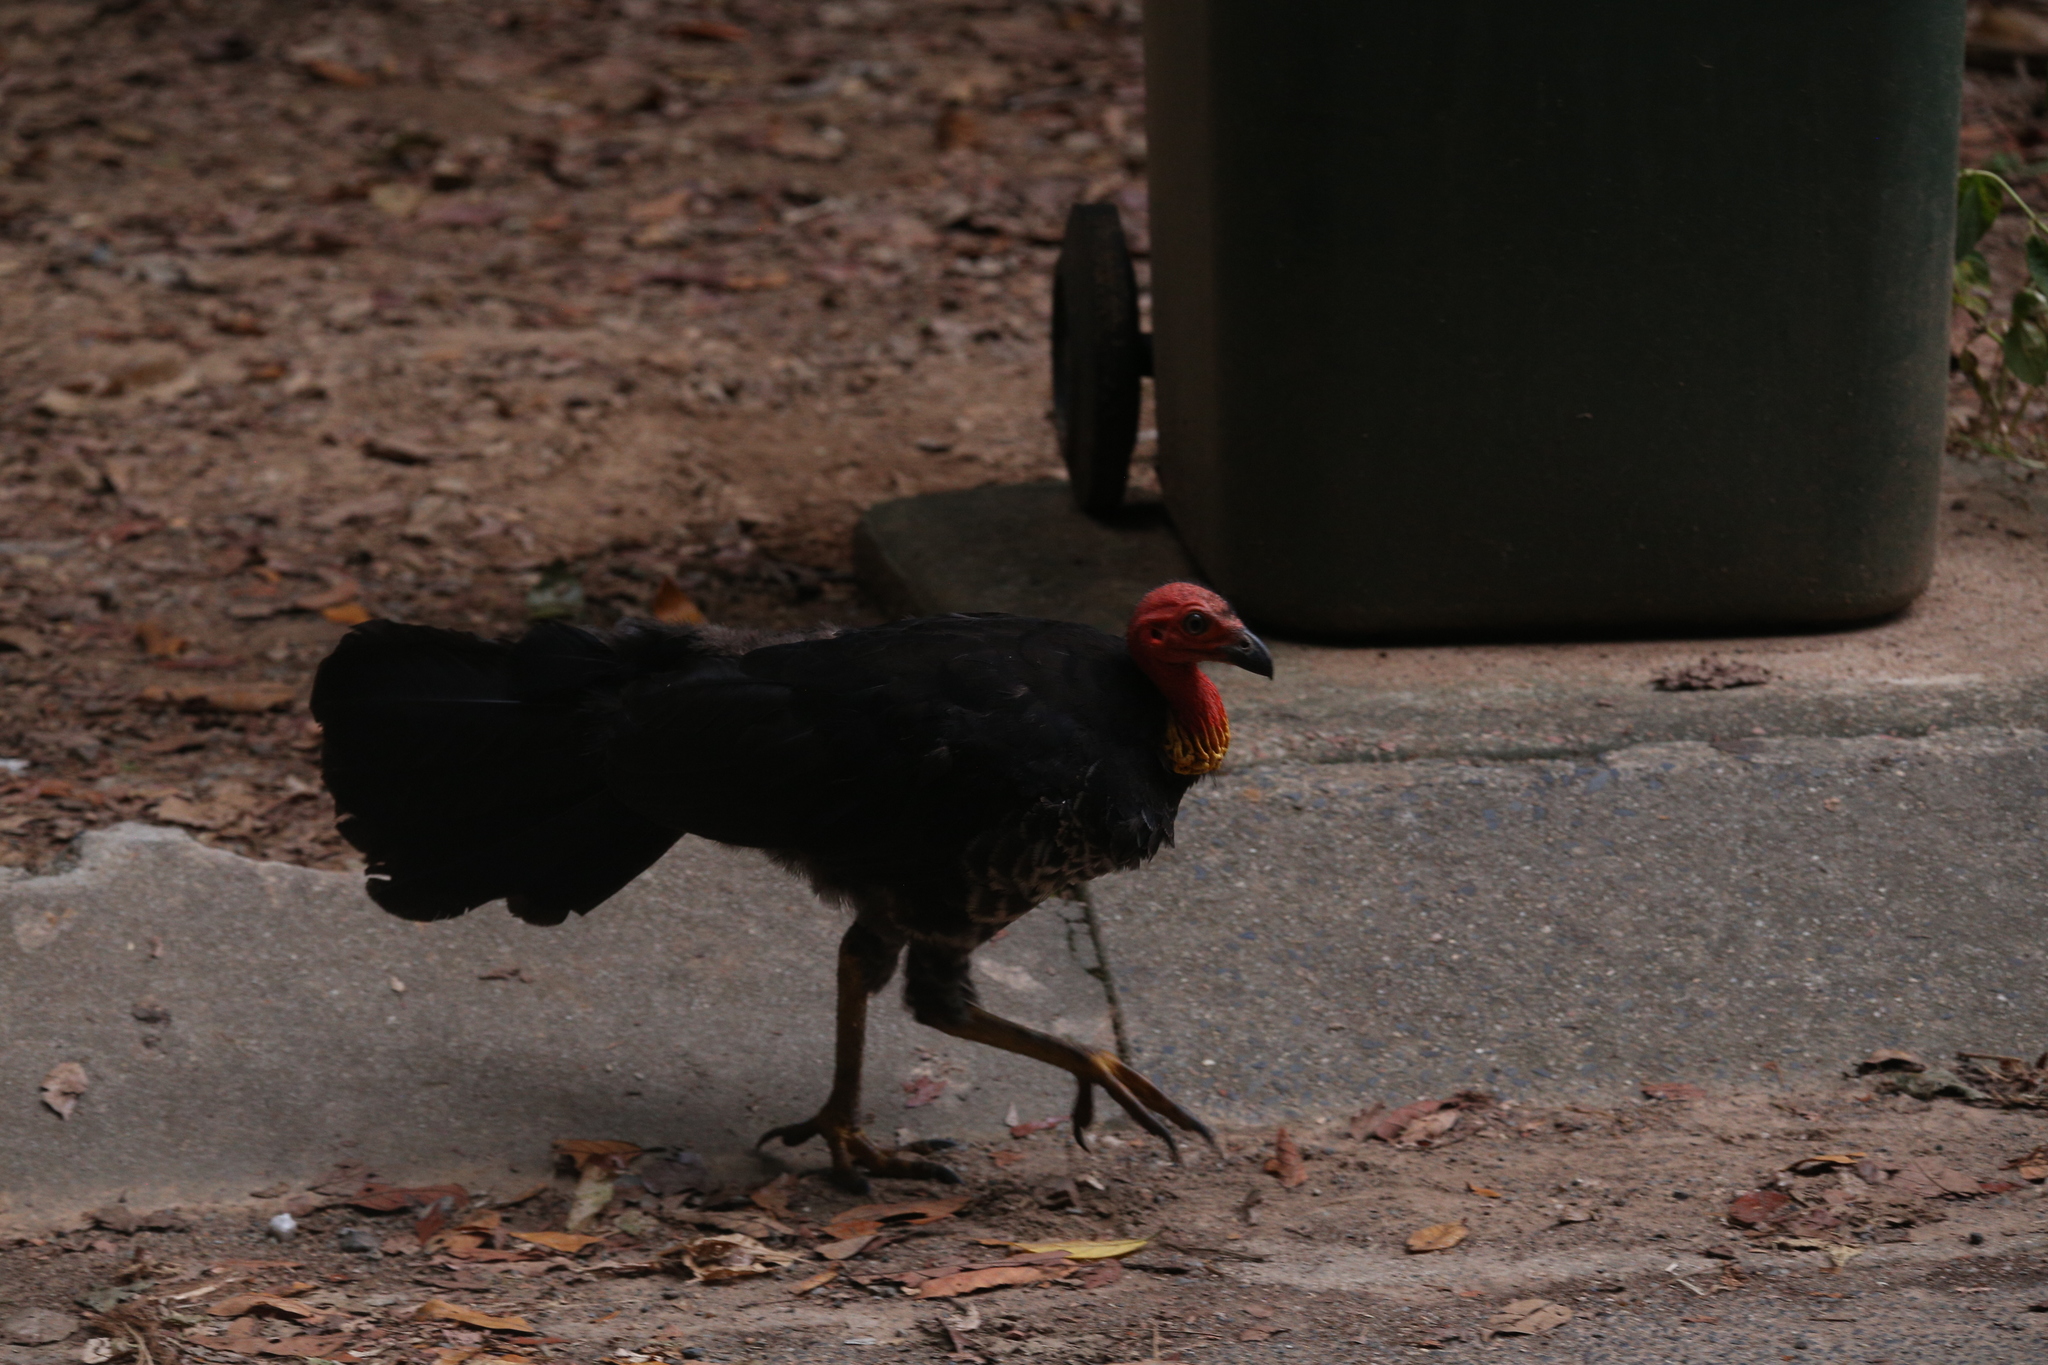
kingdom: Animalia
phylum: Chordata
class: Aves
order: Galliformes
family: Megapodiidae
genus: Alectura
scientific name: Alectura lathami
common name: Australian brushturkey
